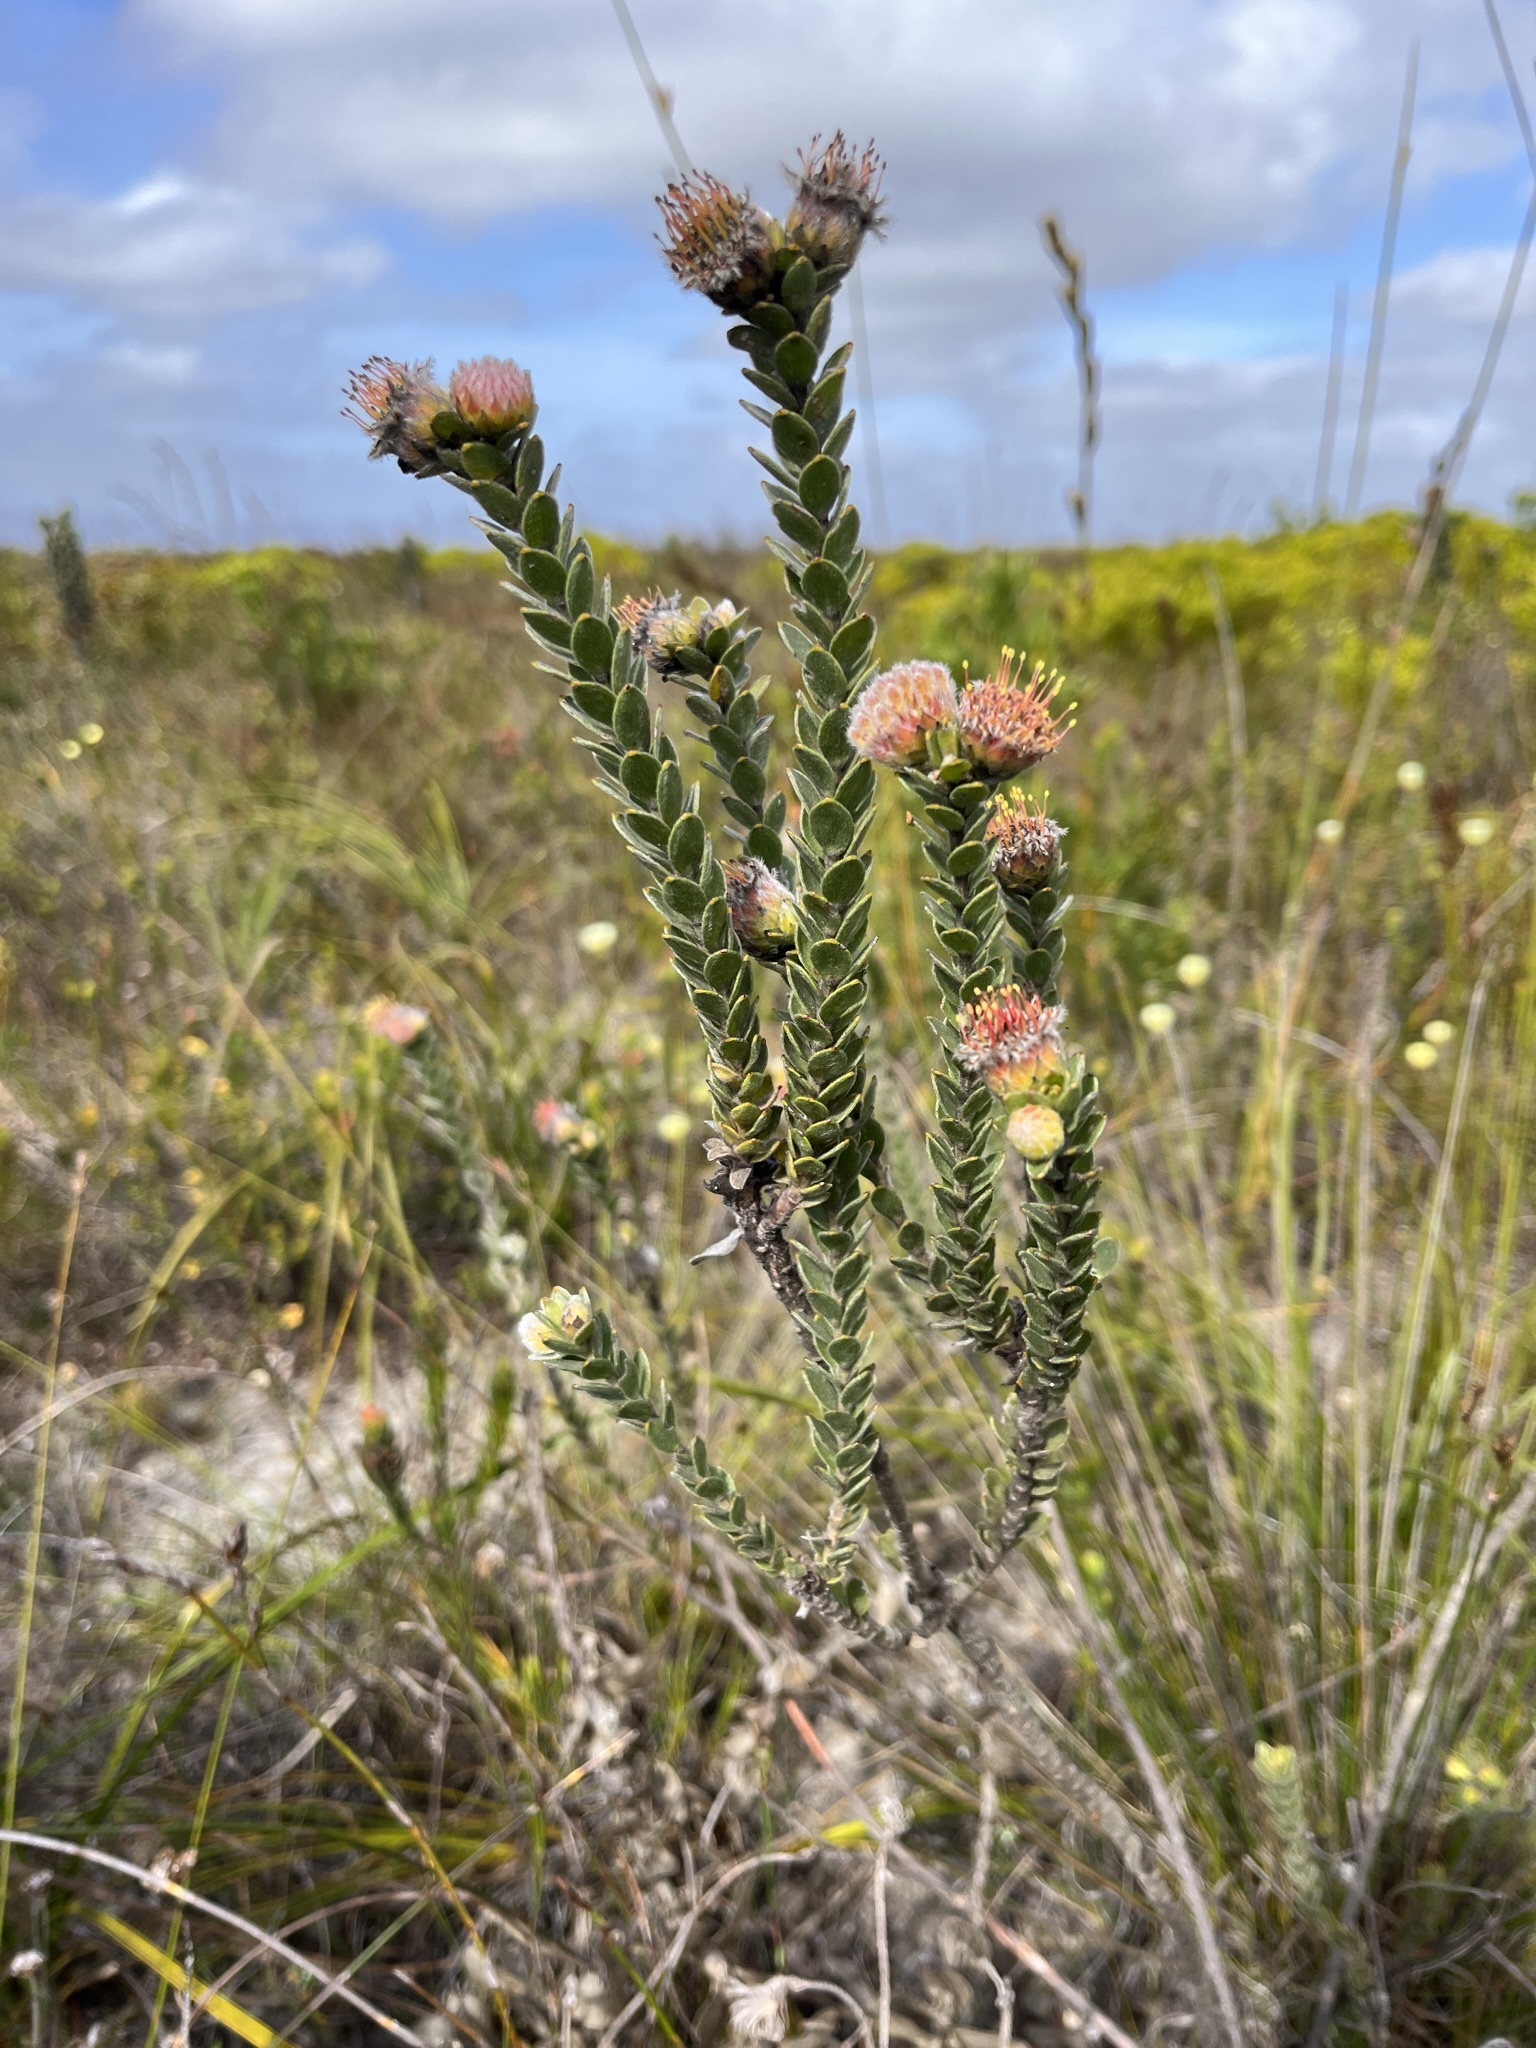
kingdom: Plantae
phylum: Tracheophyta
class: Magnoliopsida
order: Proteales
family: Proteaceae
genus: Leucospermum
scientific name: Leucospermum truncatulum
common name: Oval-leaf pincushion
